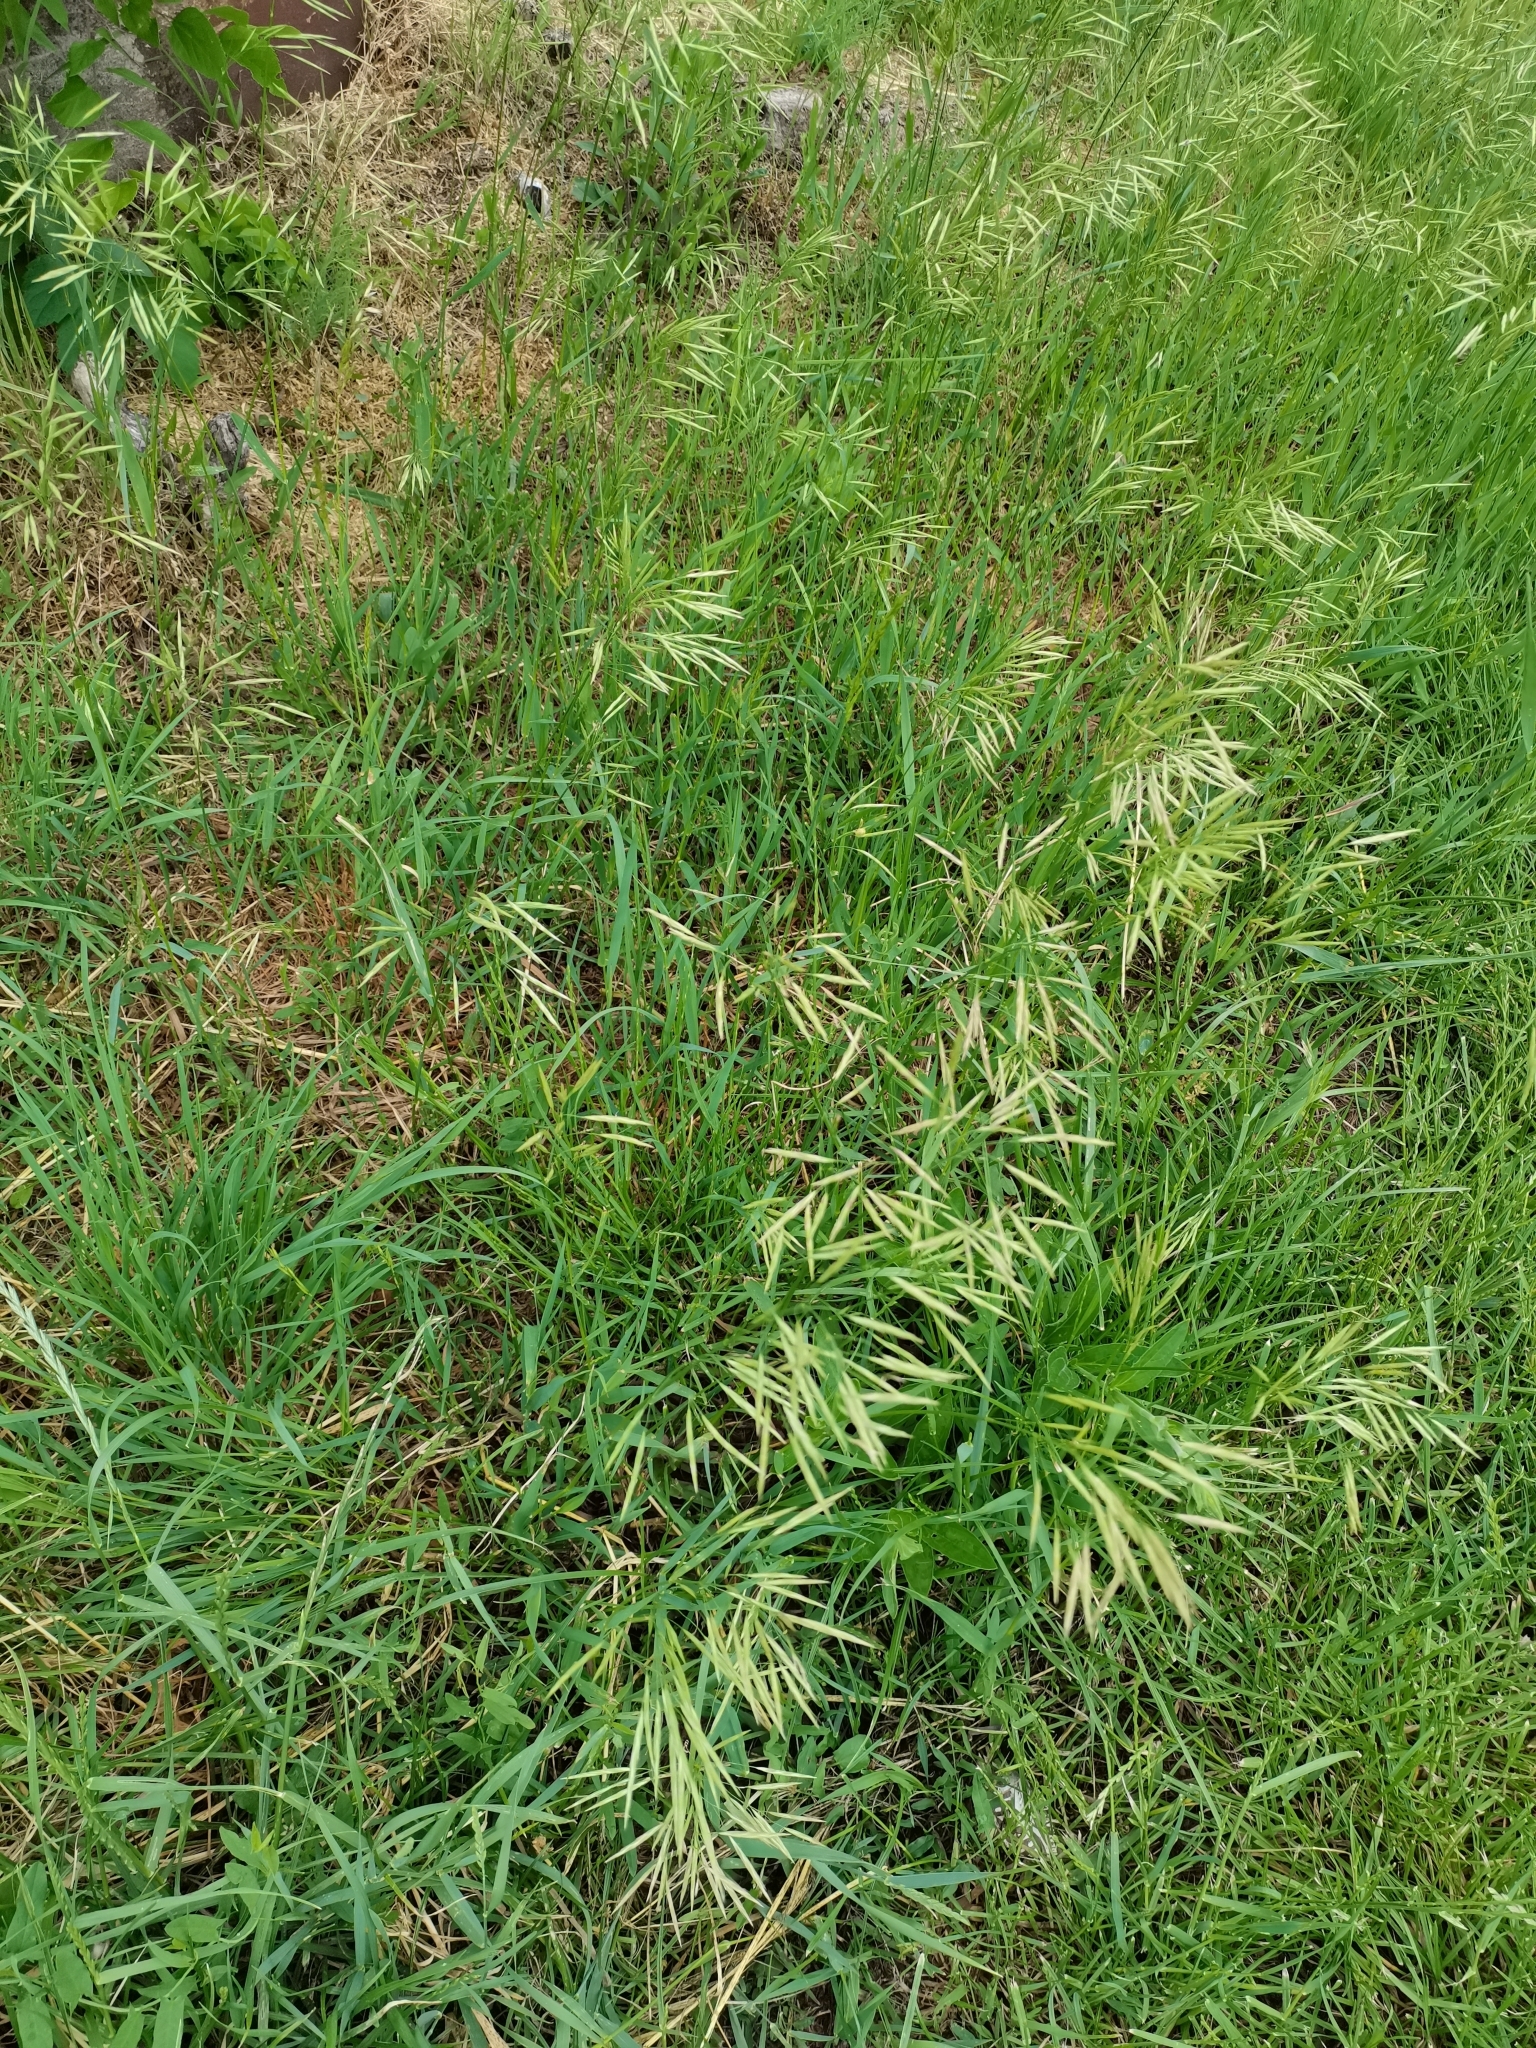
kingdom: Plantae
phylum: Tracheophyta
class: Liliopsida
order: Poales
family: Poaceae
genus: Bromus
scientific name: Bromus inermis
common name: Smooth brome
